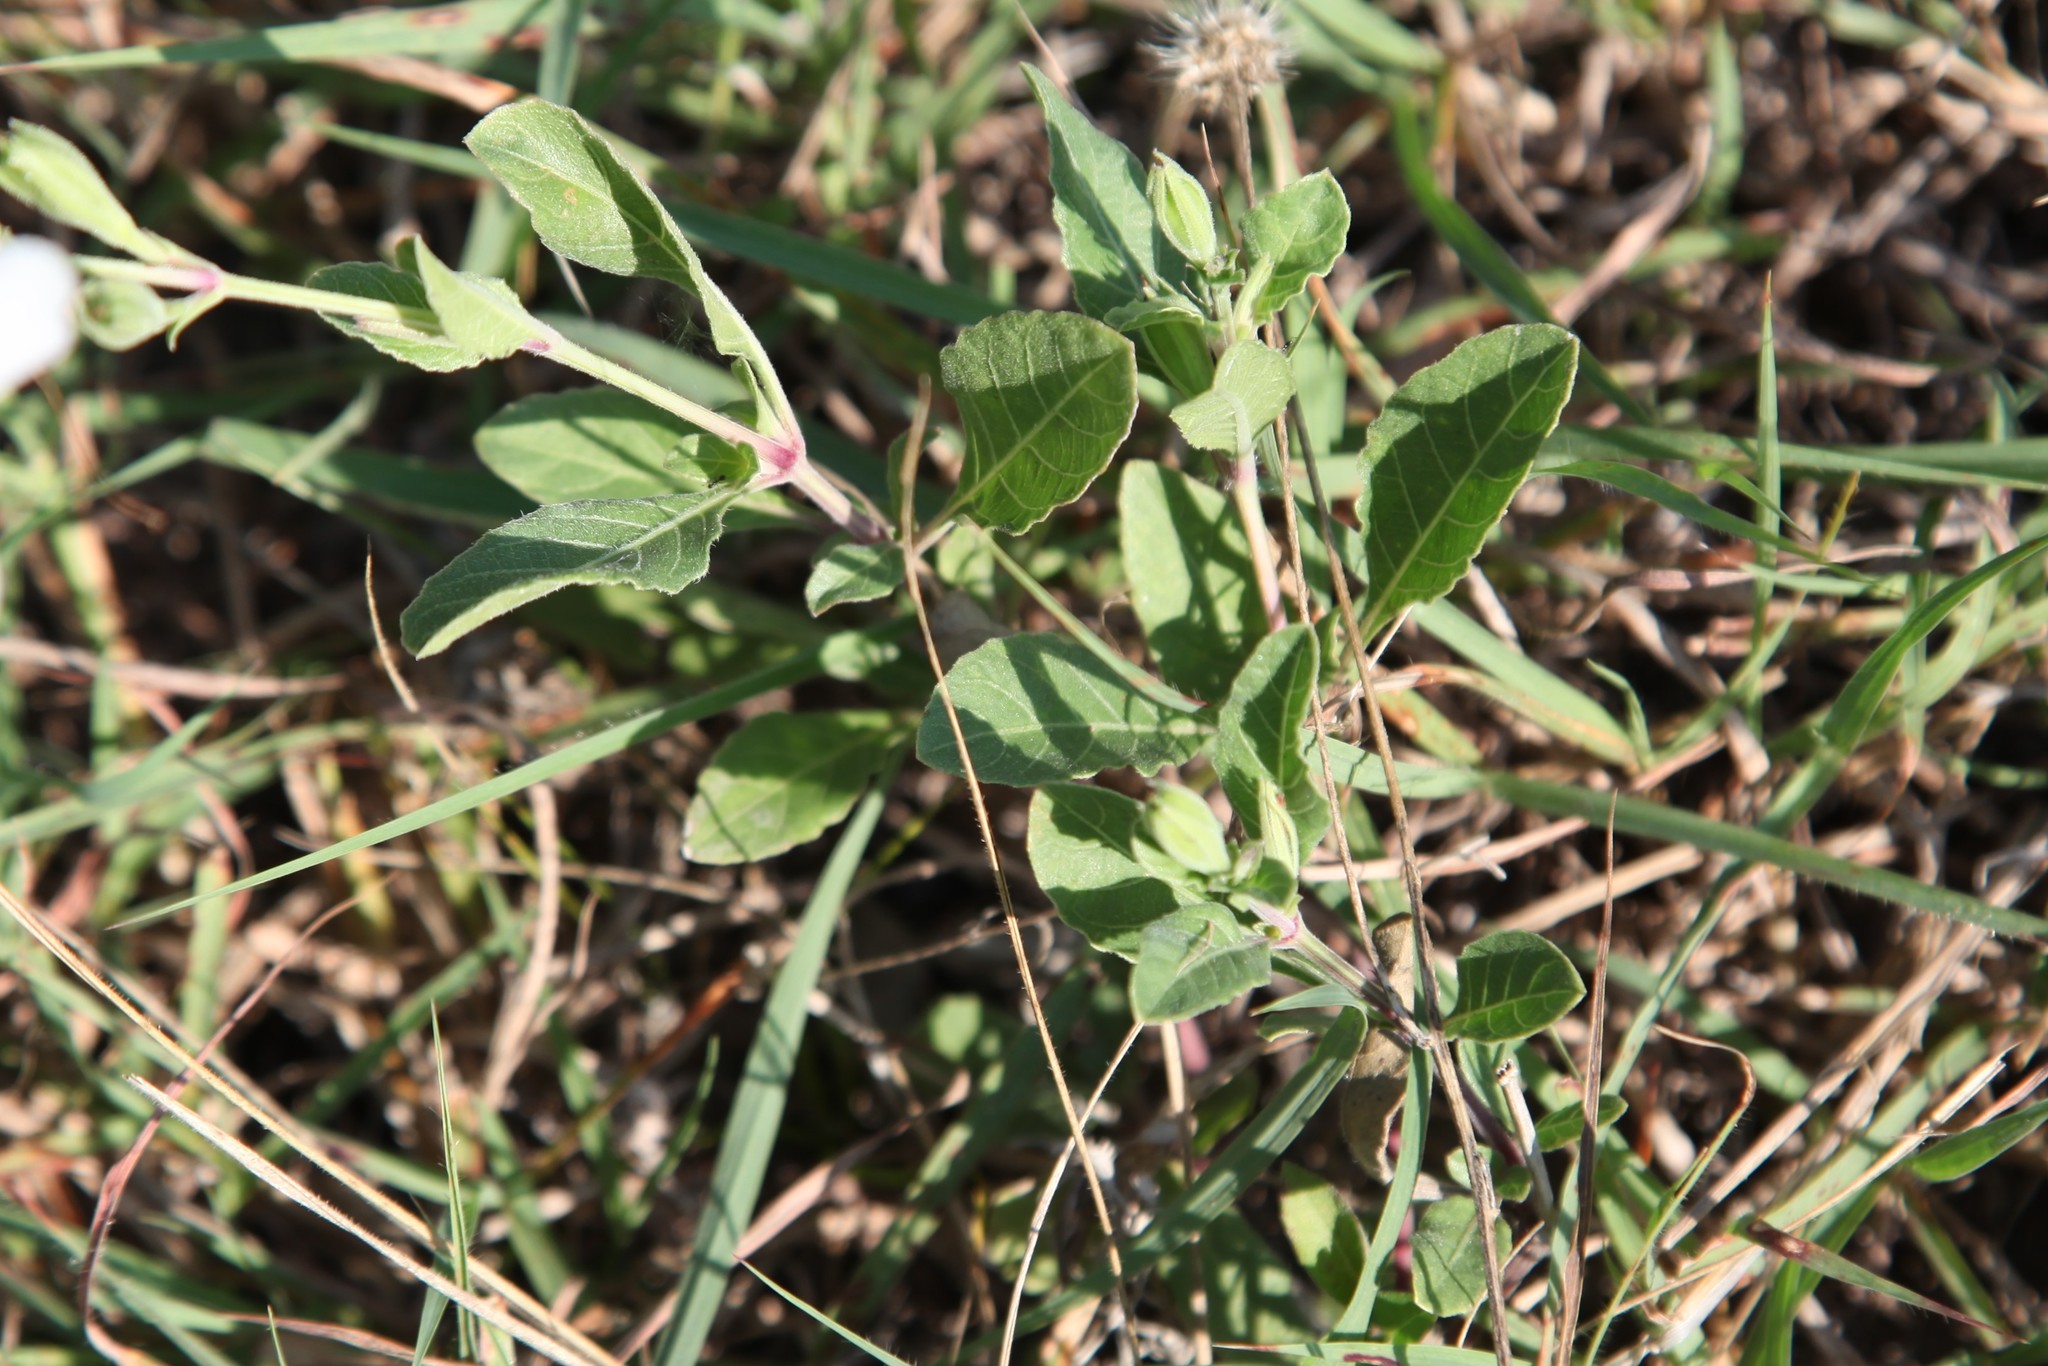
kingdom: Plantae
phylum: Tracheophyta
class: Magnoliopsida
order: Lamiales
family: Acanthaceae
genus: Ruellia
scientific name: Ruellia metziae
